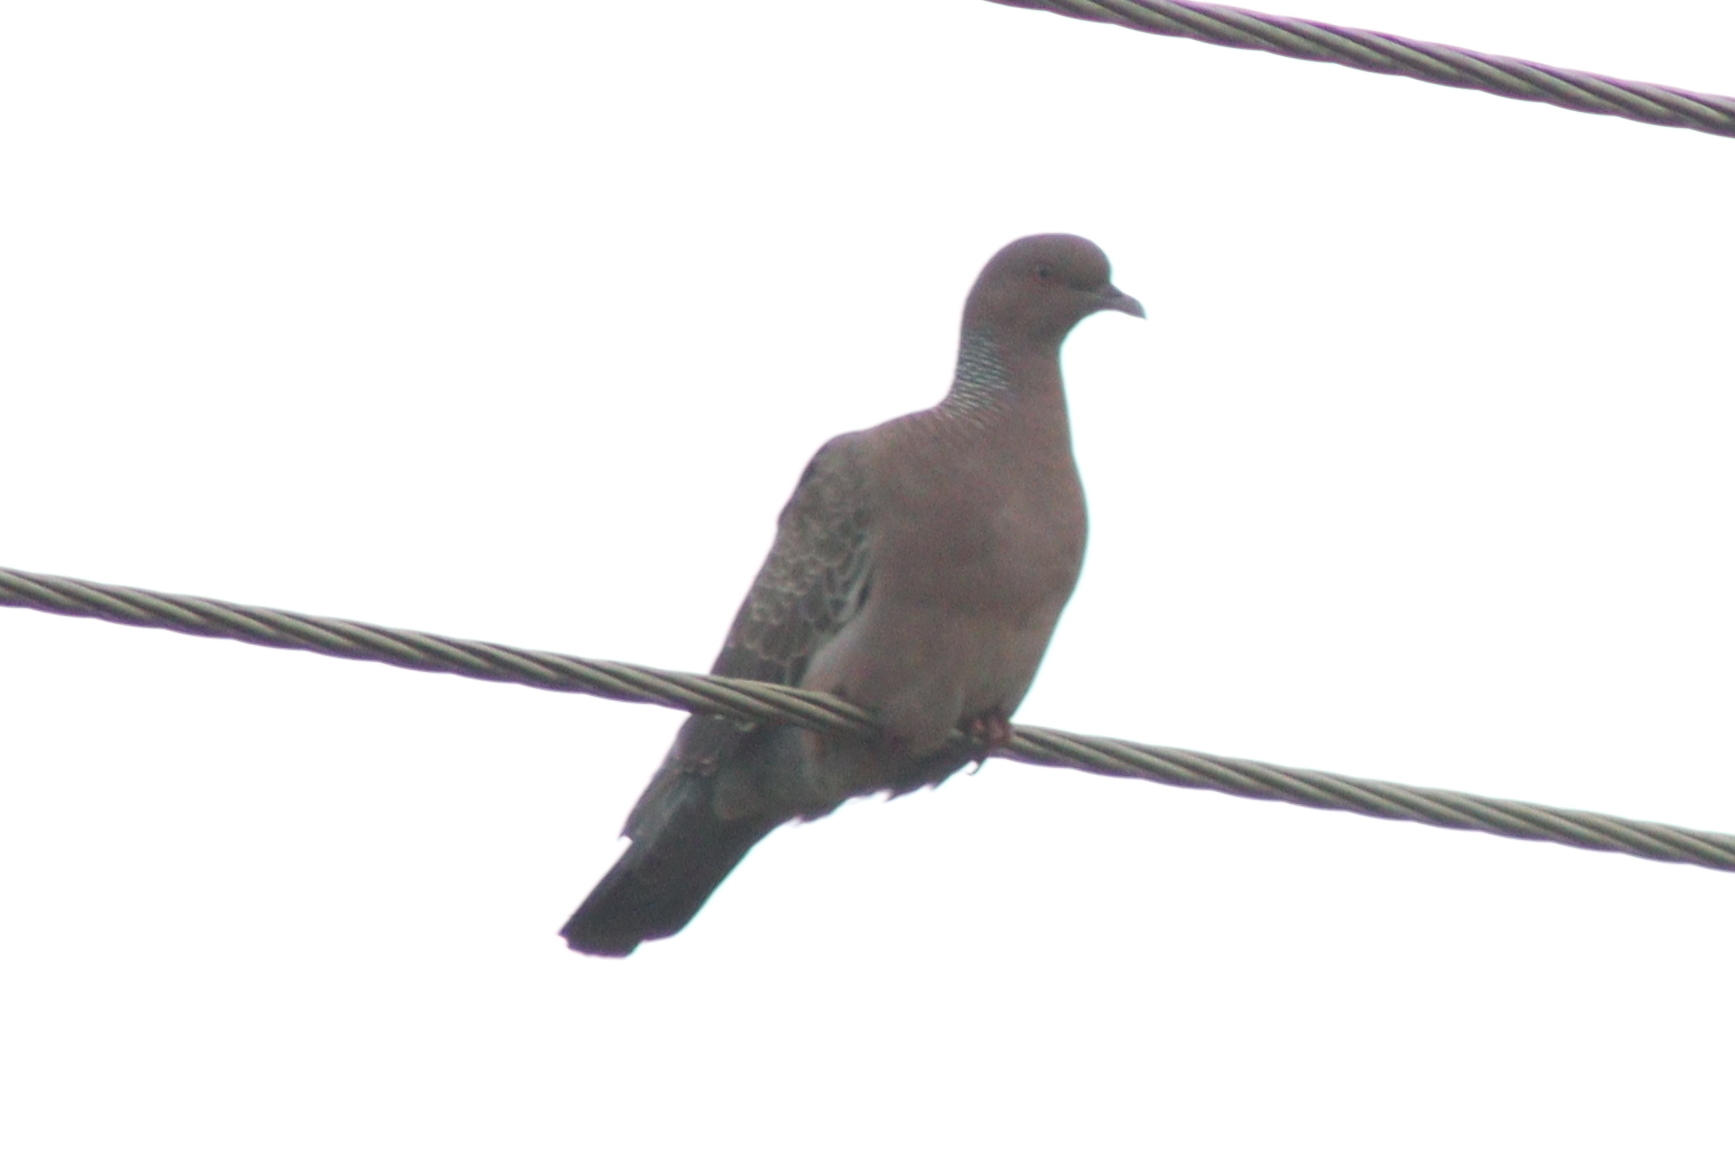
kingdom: Animalia
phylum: Chordata
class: Aves
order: Columbiformes
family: Columbidae
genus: Patagioenas
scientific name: Patagioenas picazuro
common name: Picazuro pigeon
